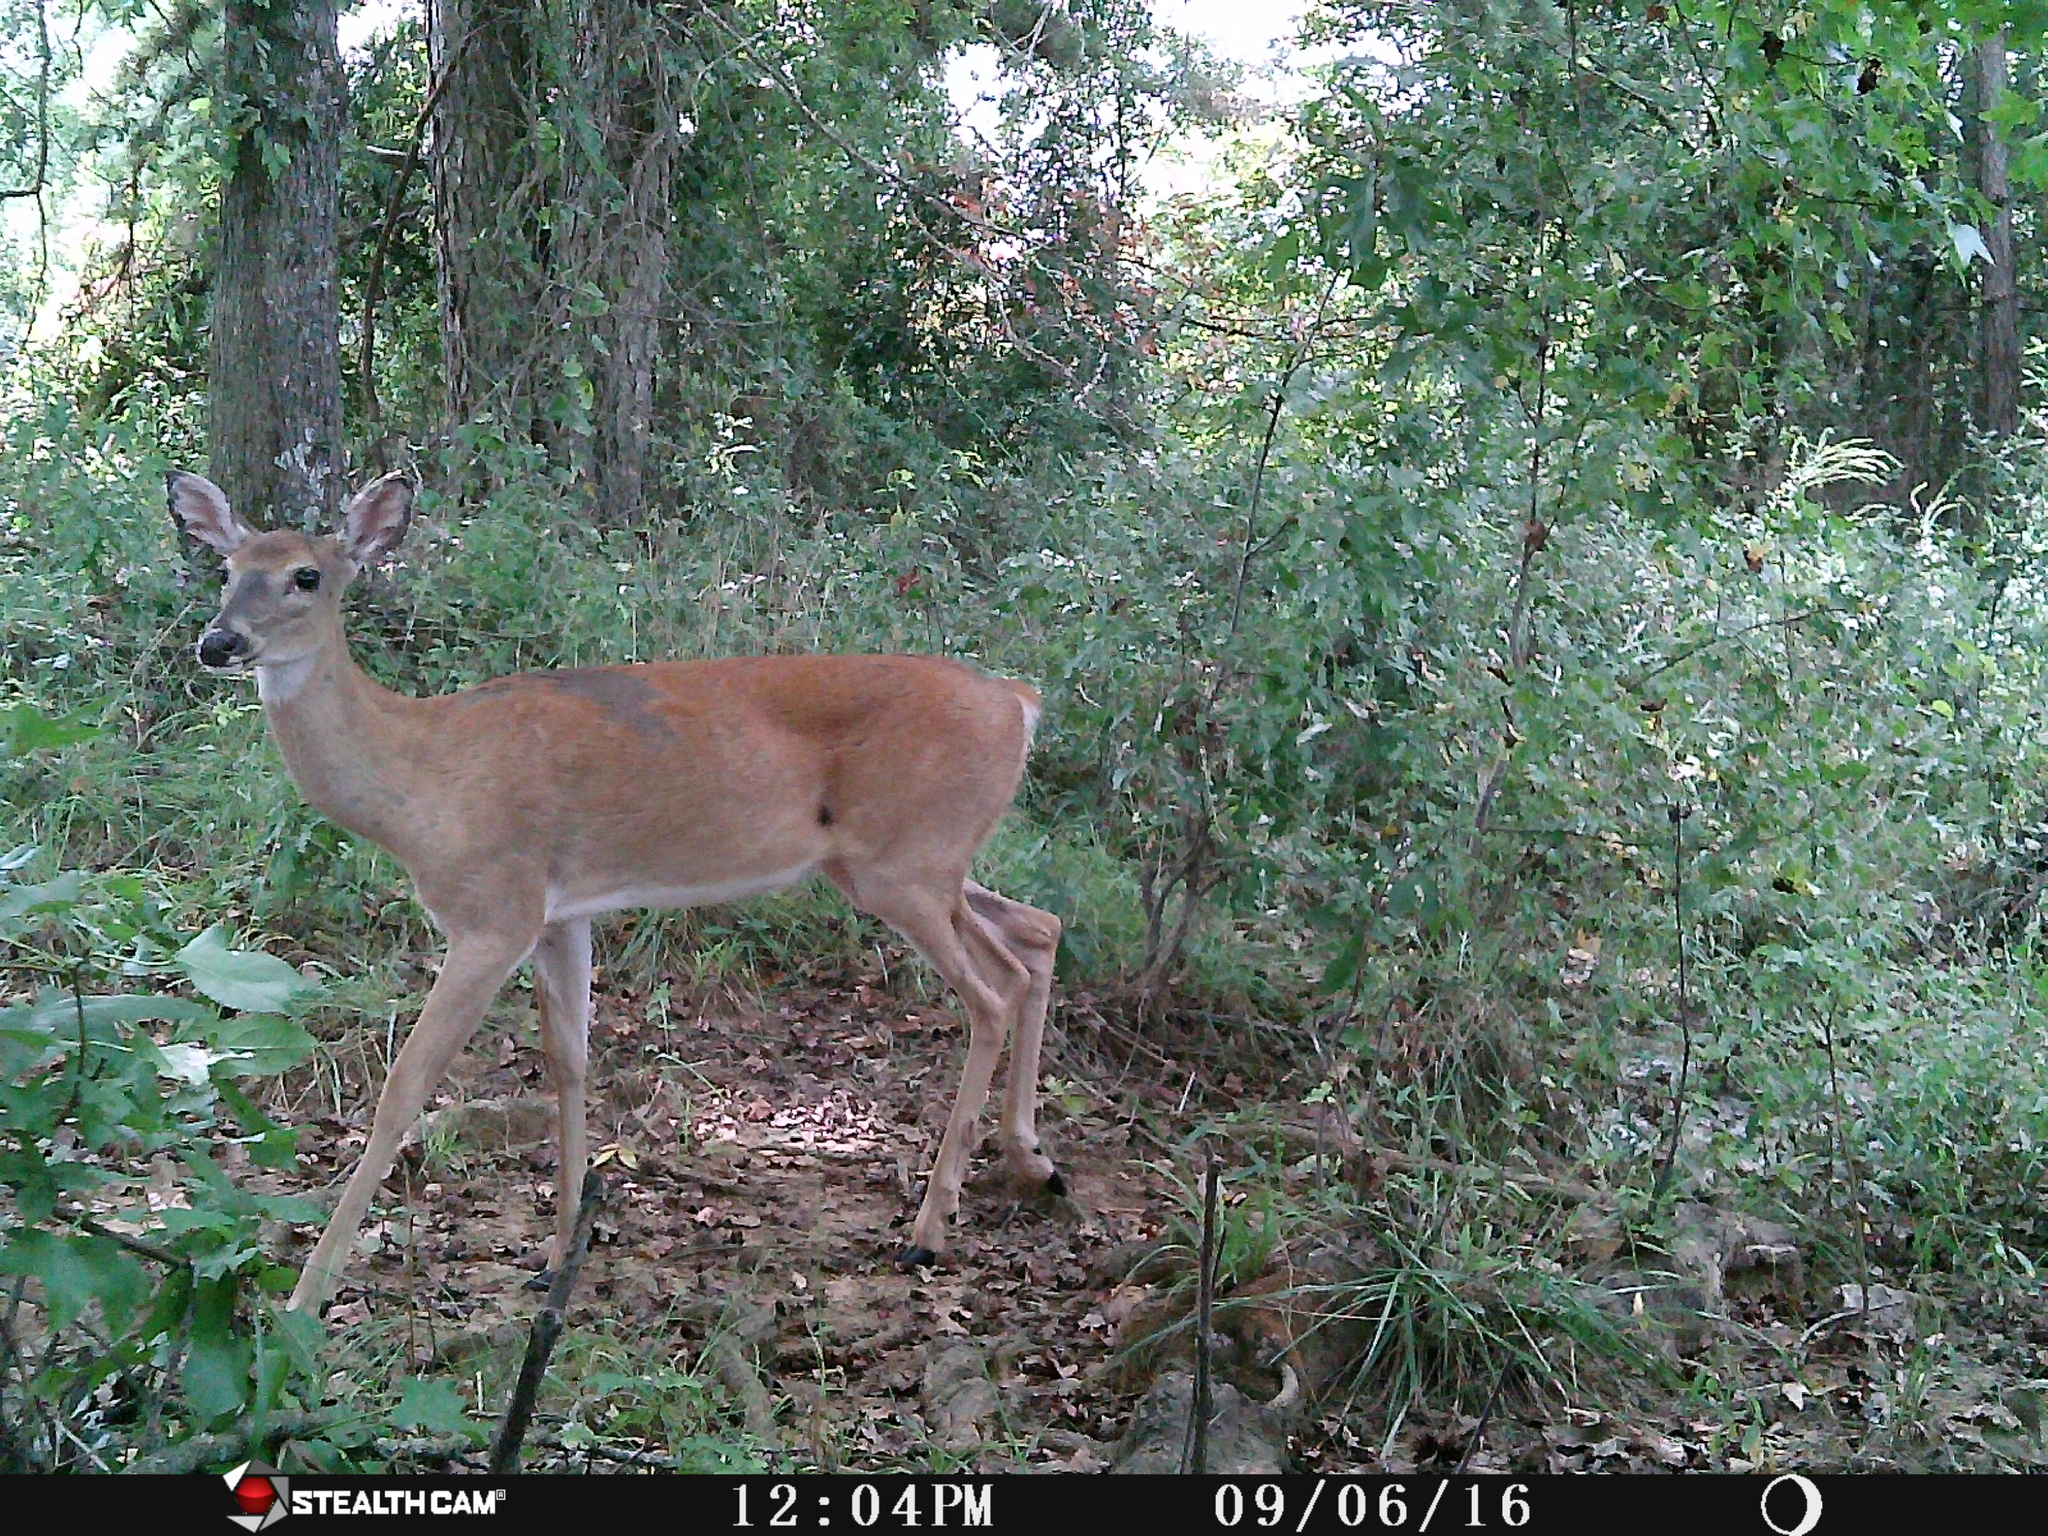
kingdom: Animalia
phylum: Chordata
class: Mammalia
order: Artiodactyla
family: Cervidae
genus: Odocoileus
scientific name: Odocoileus virginianus
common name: White-tailed deer
